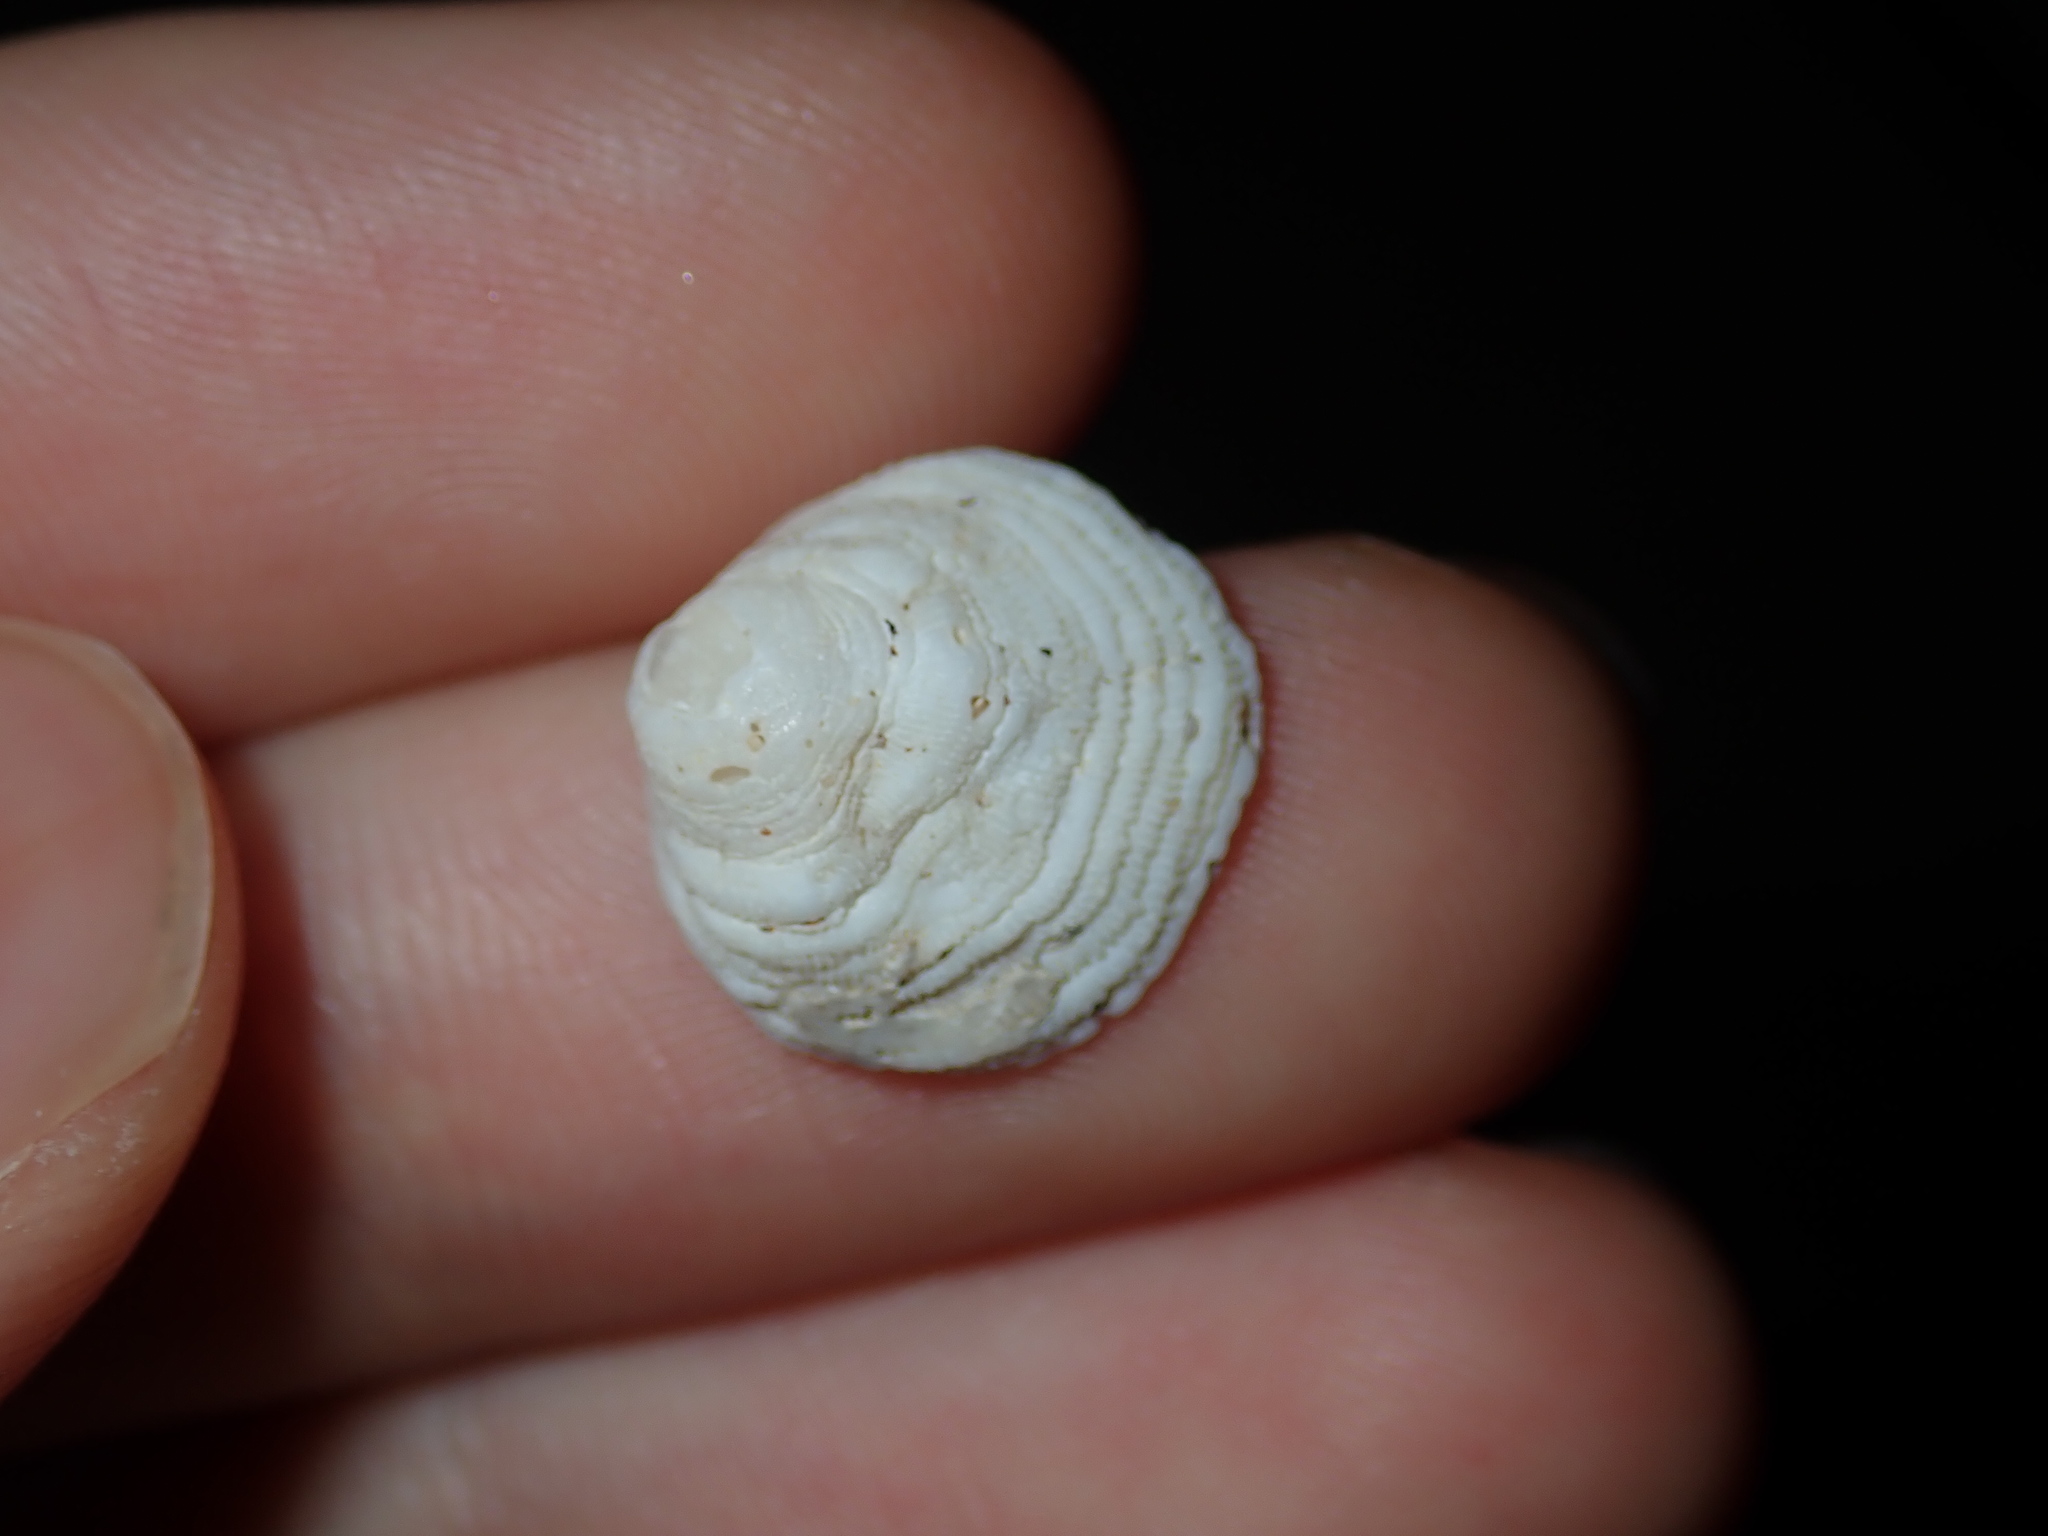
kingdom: Animalia
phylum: Mollusca
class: Gastropoda
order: Littorinimorpha
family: Hipponicidae
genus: Antisabia
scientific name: Antisabia foliacea
